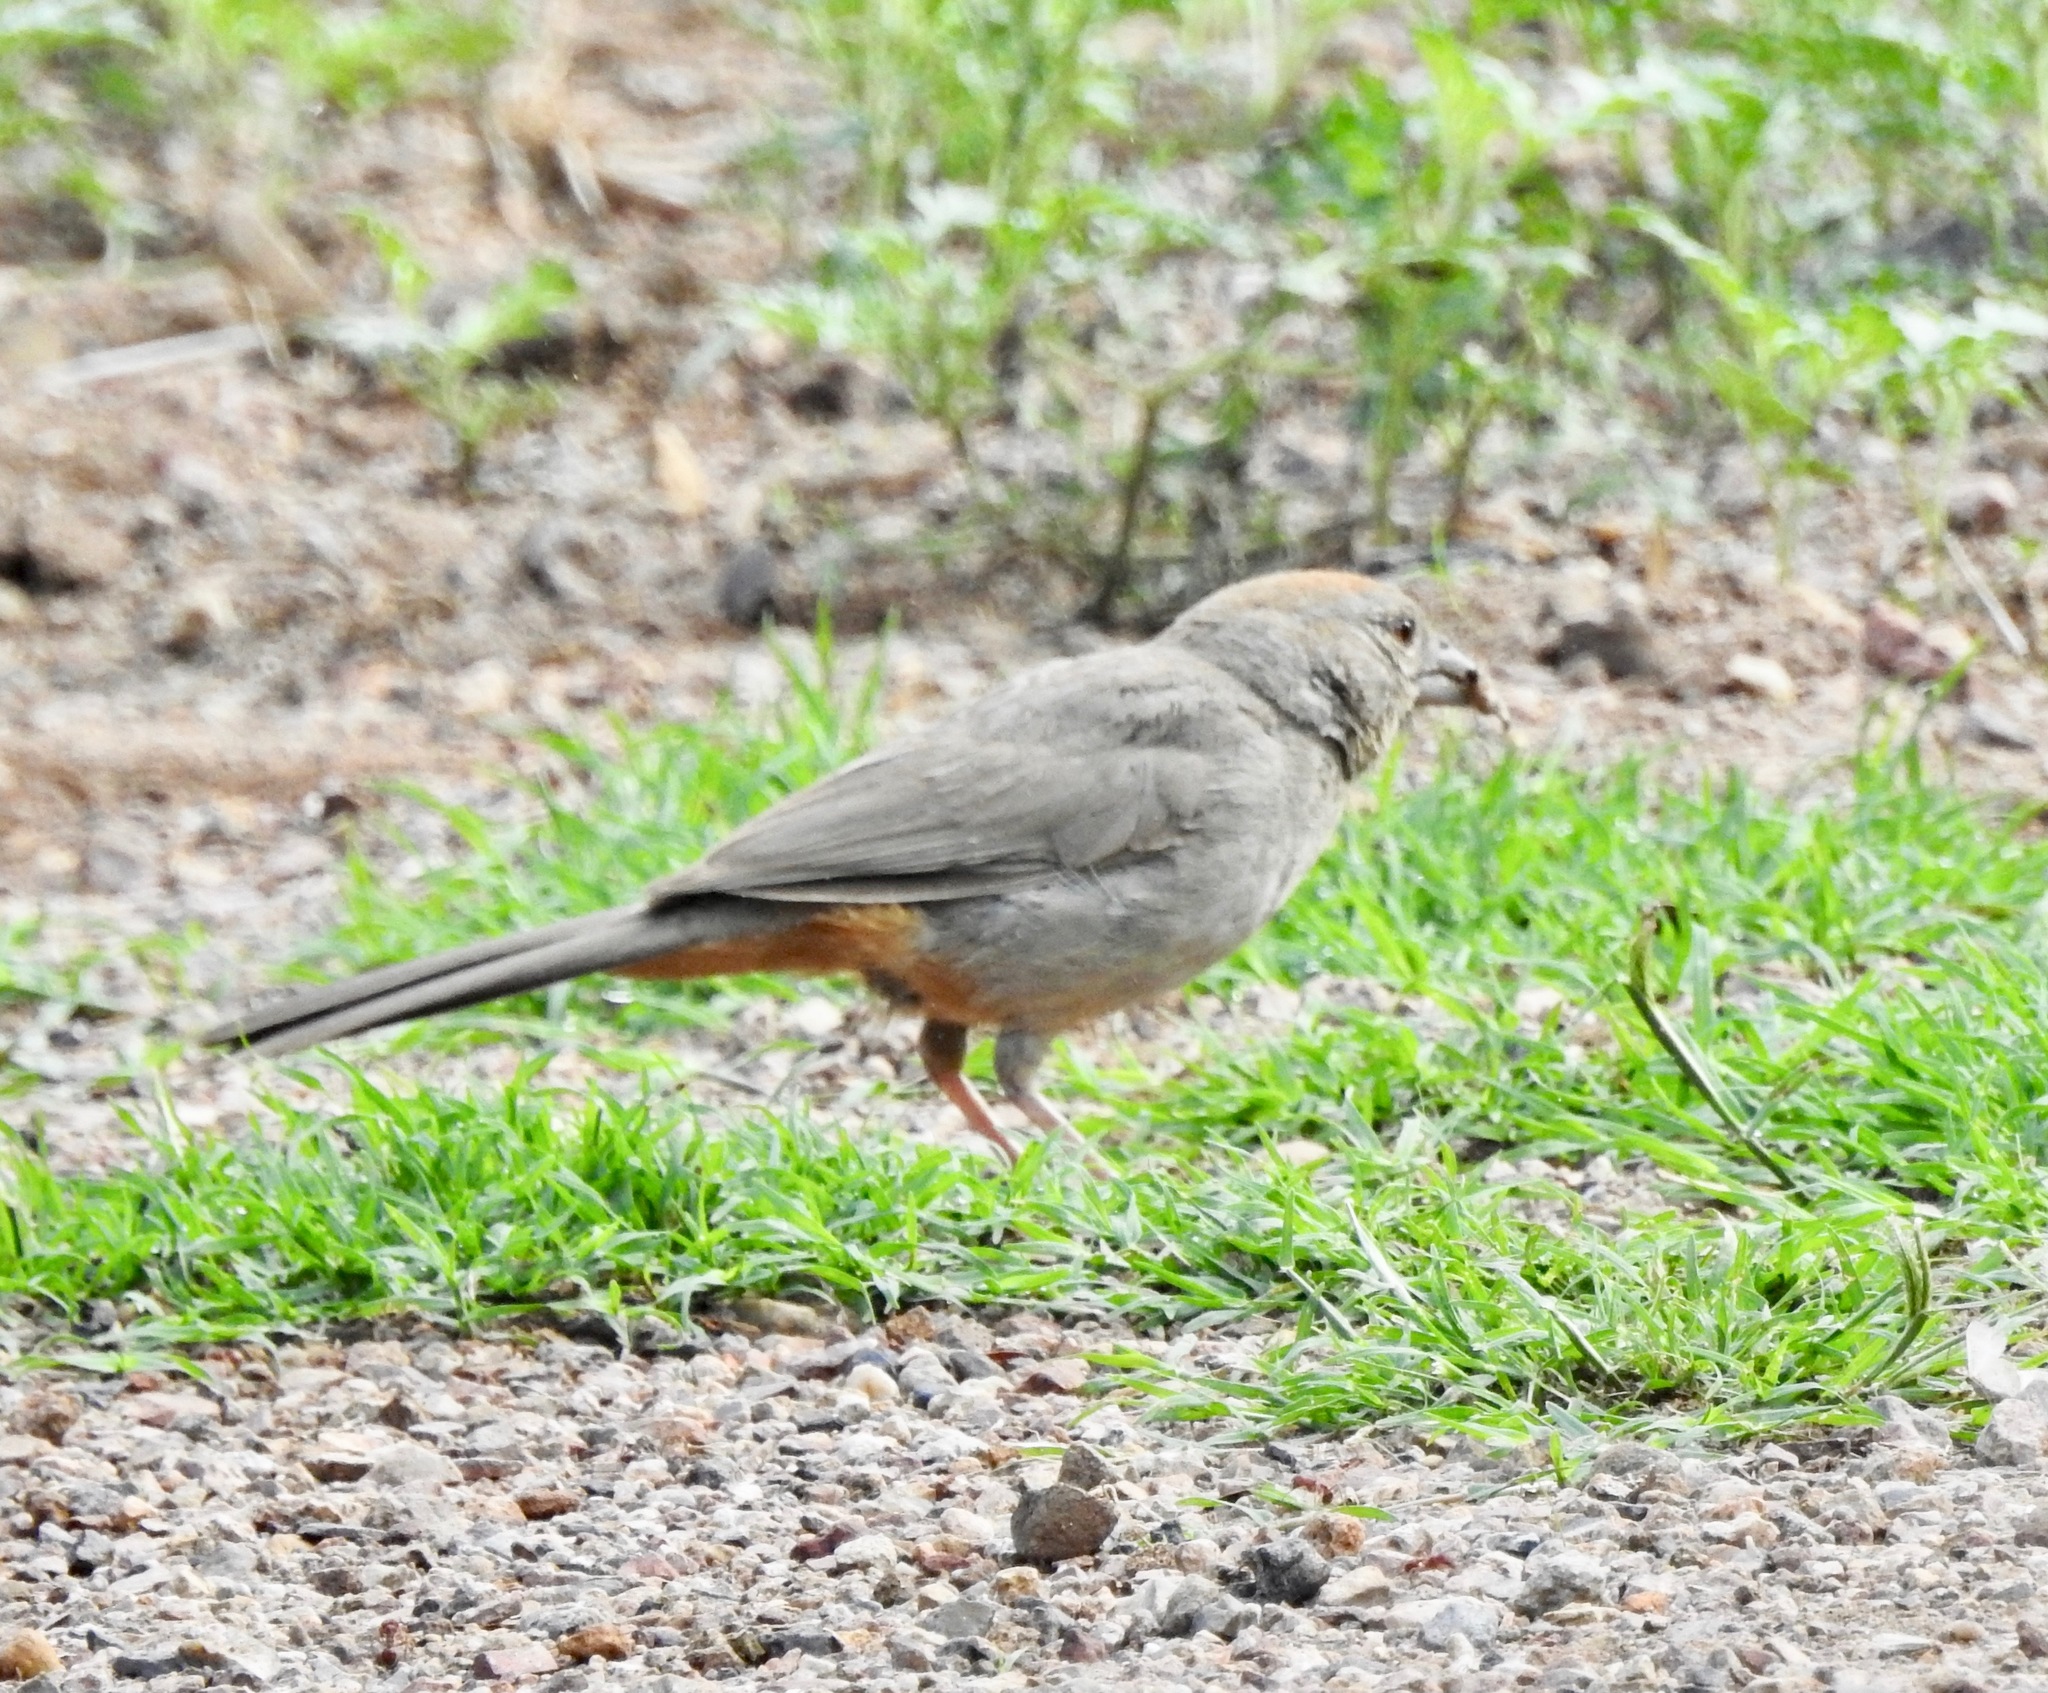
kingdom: Animalia
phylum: Chordata
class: Aves
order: Passeriformes
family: Passerellidae
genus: Melozone
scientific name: Melozone fusca
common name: Canyon towhee
